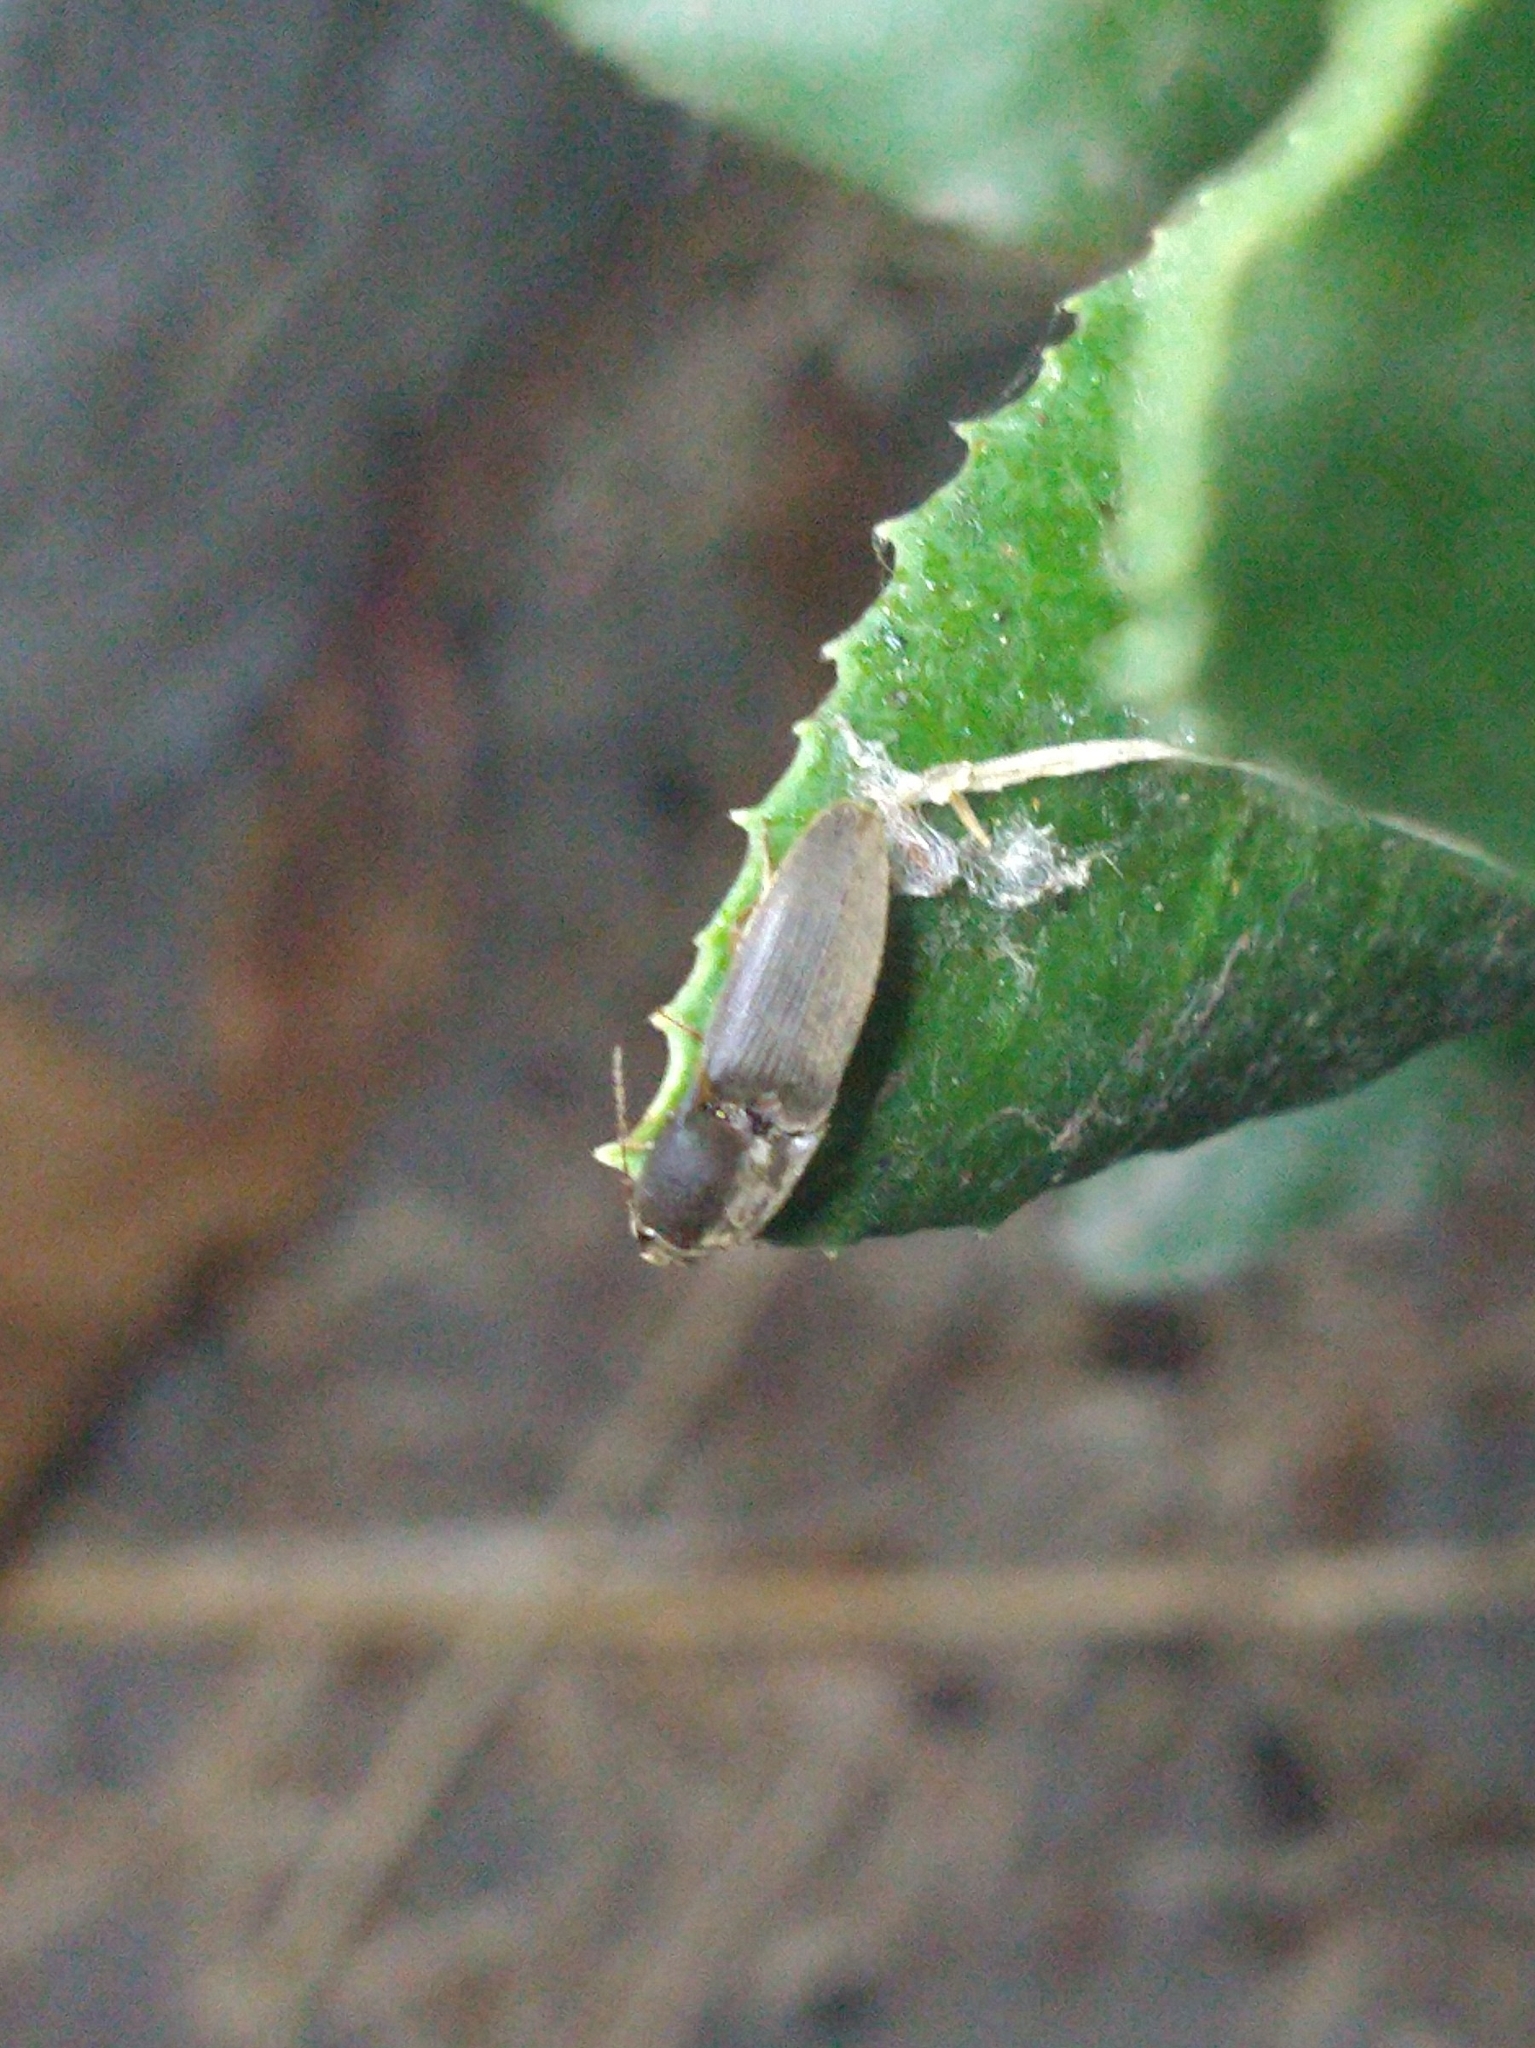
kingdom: Animalia
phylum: Arthropoda
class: Insecta
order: Coleoptera
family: Elateridae
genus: Conoderus
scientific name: Conoderus exsul
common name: Click beetle
